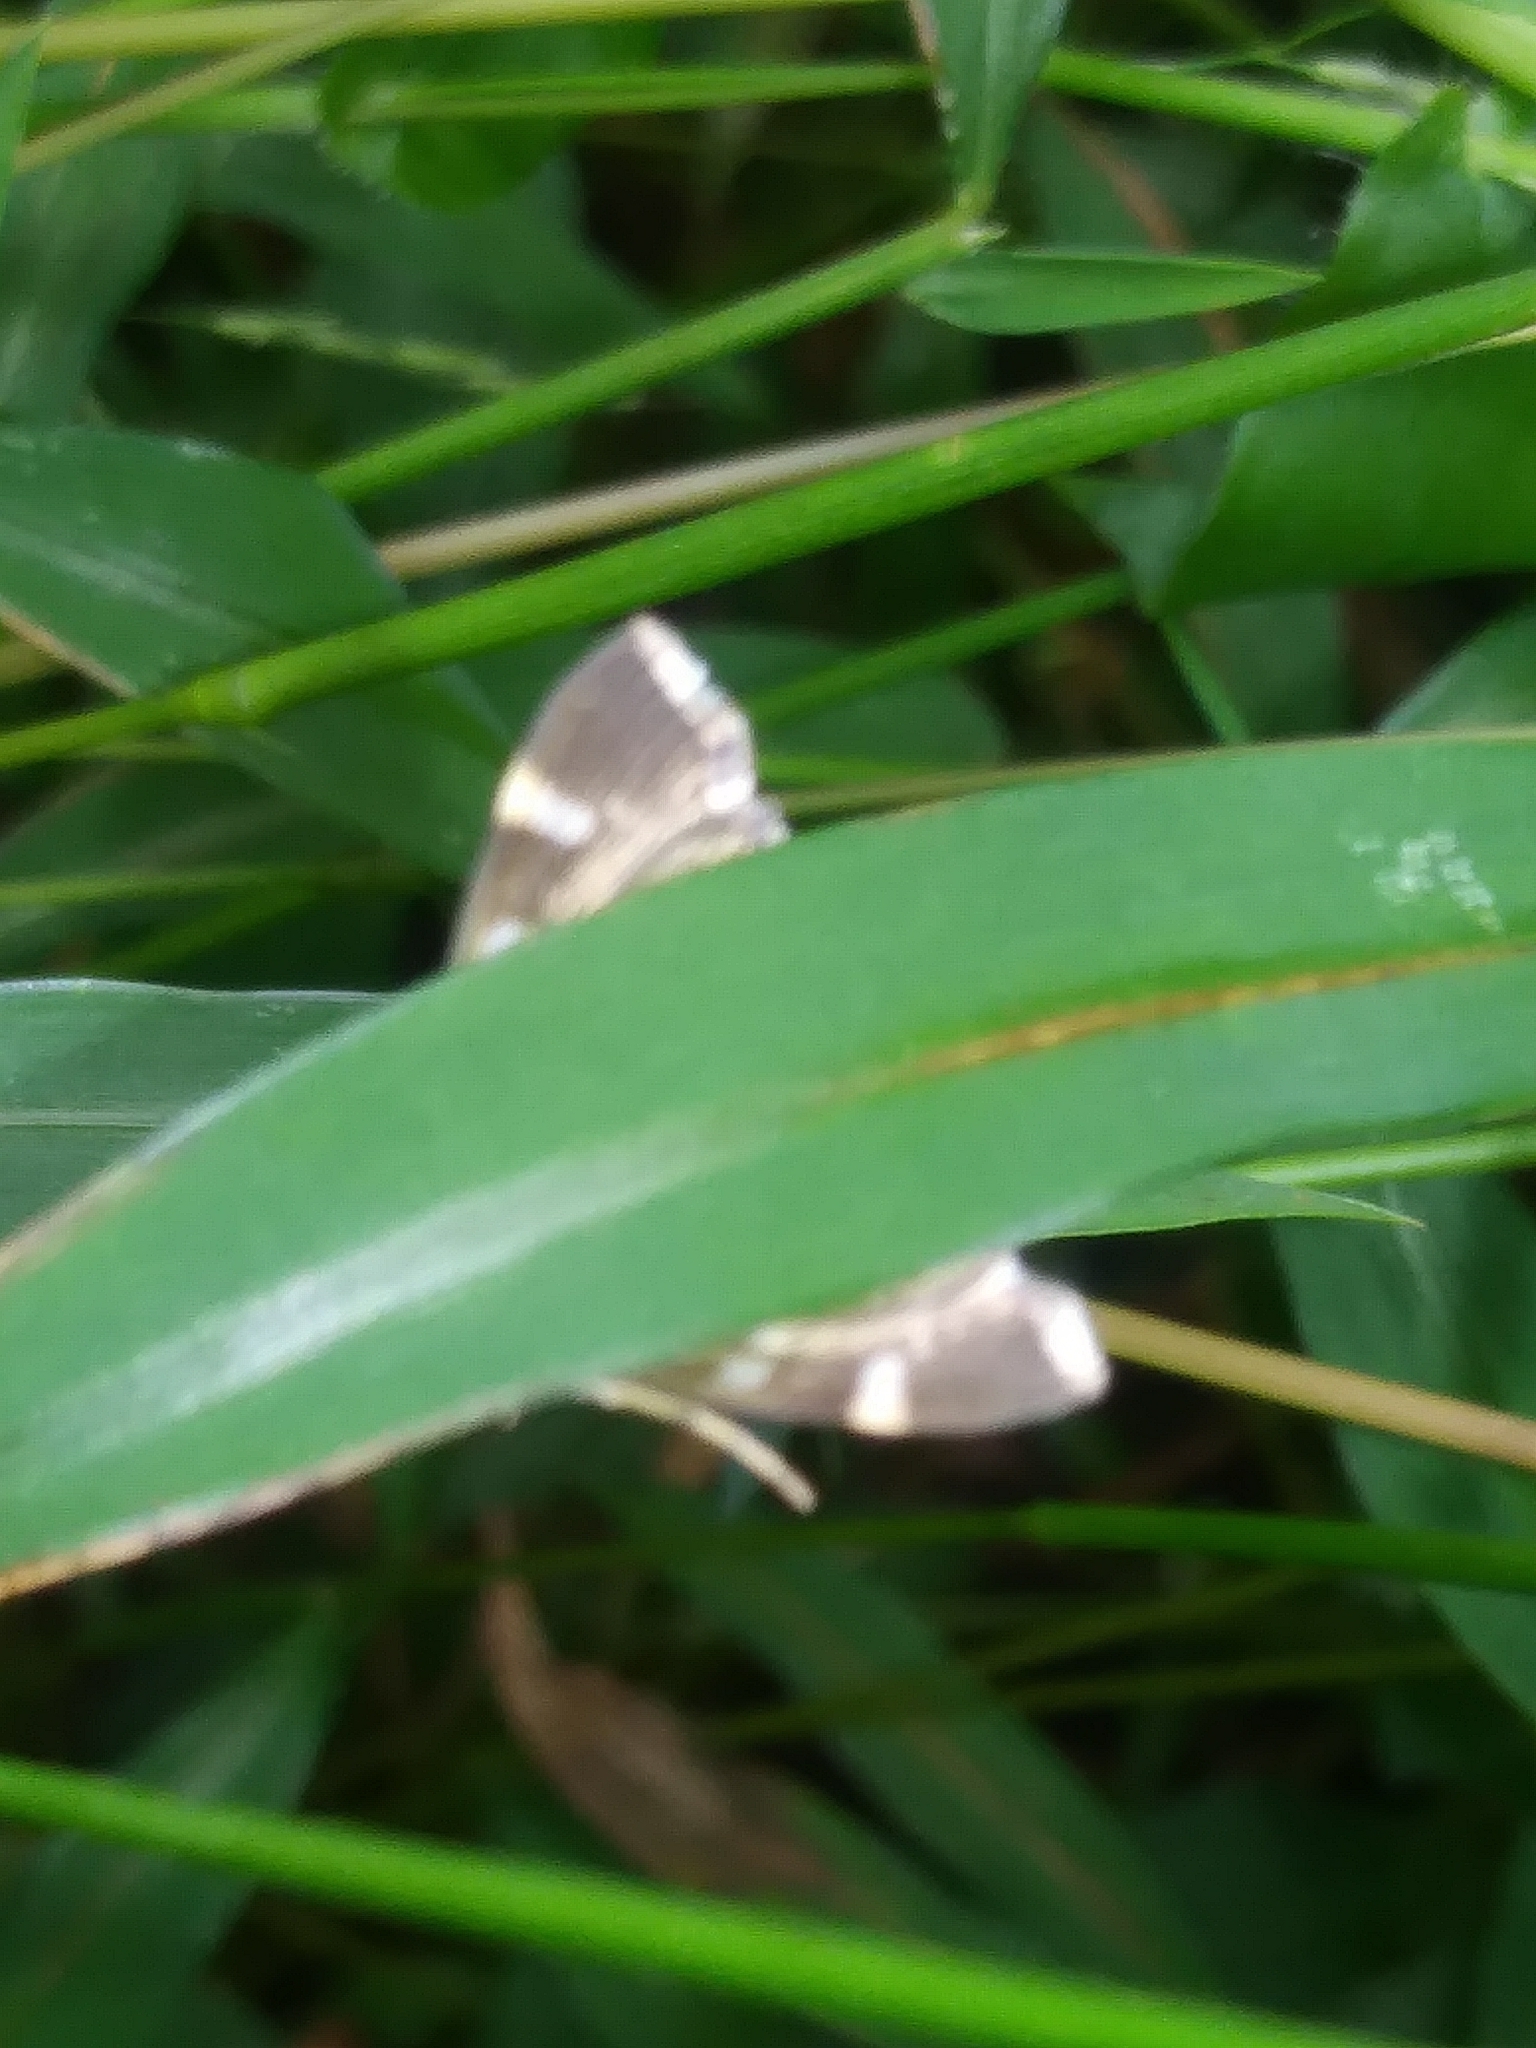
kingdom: Animalia
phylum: Arthropoda
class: Insecta
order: Lepidoptera
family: Crambidae
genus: Hymenia
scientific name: Hymenia perspectalis
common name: Spotted beet webworm
